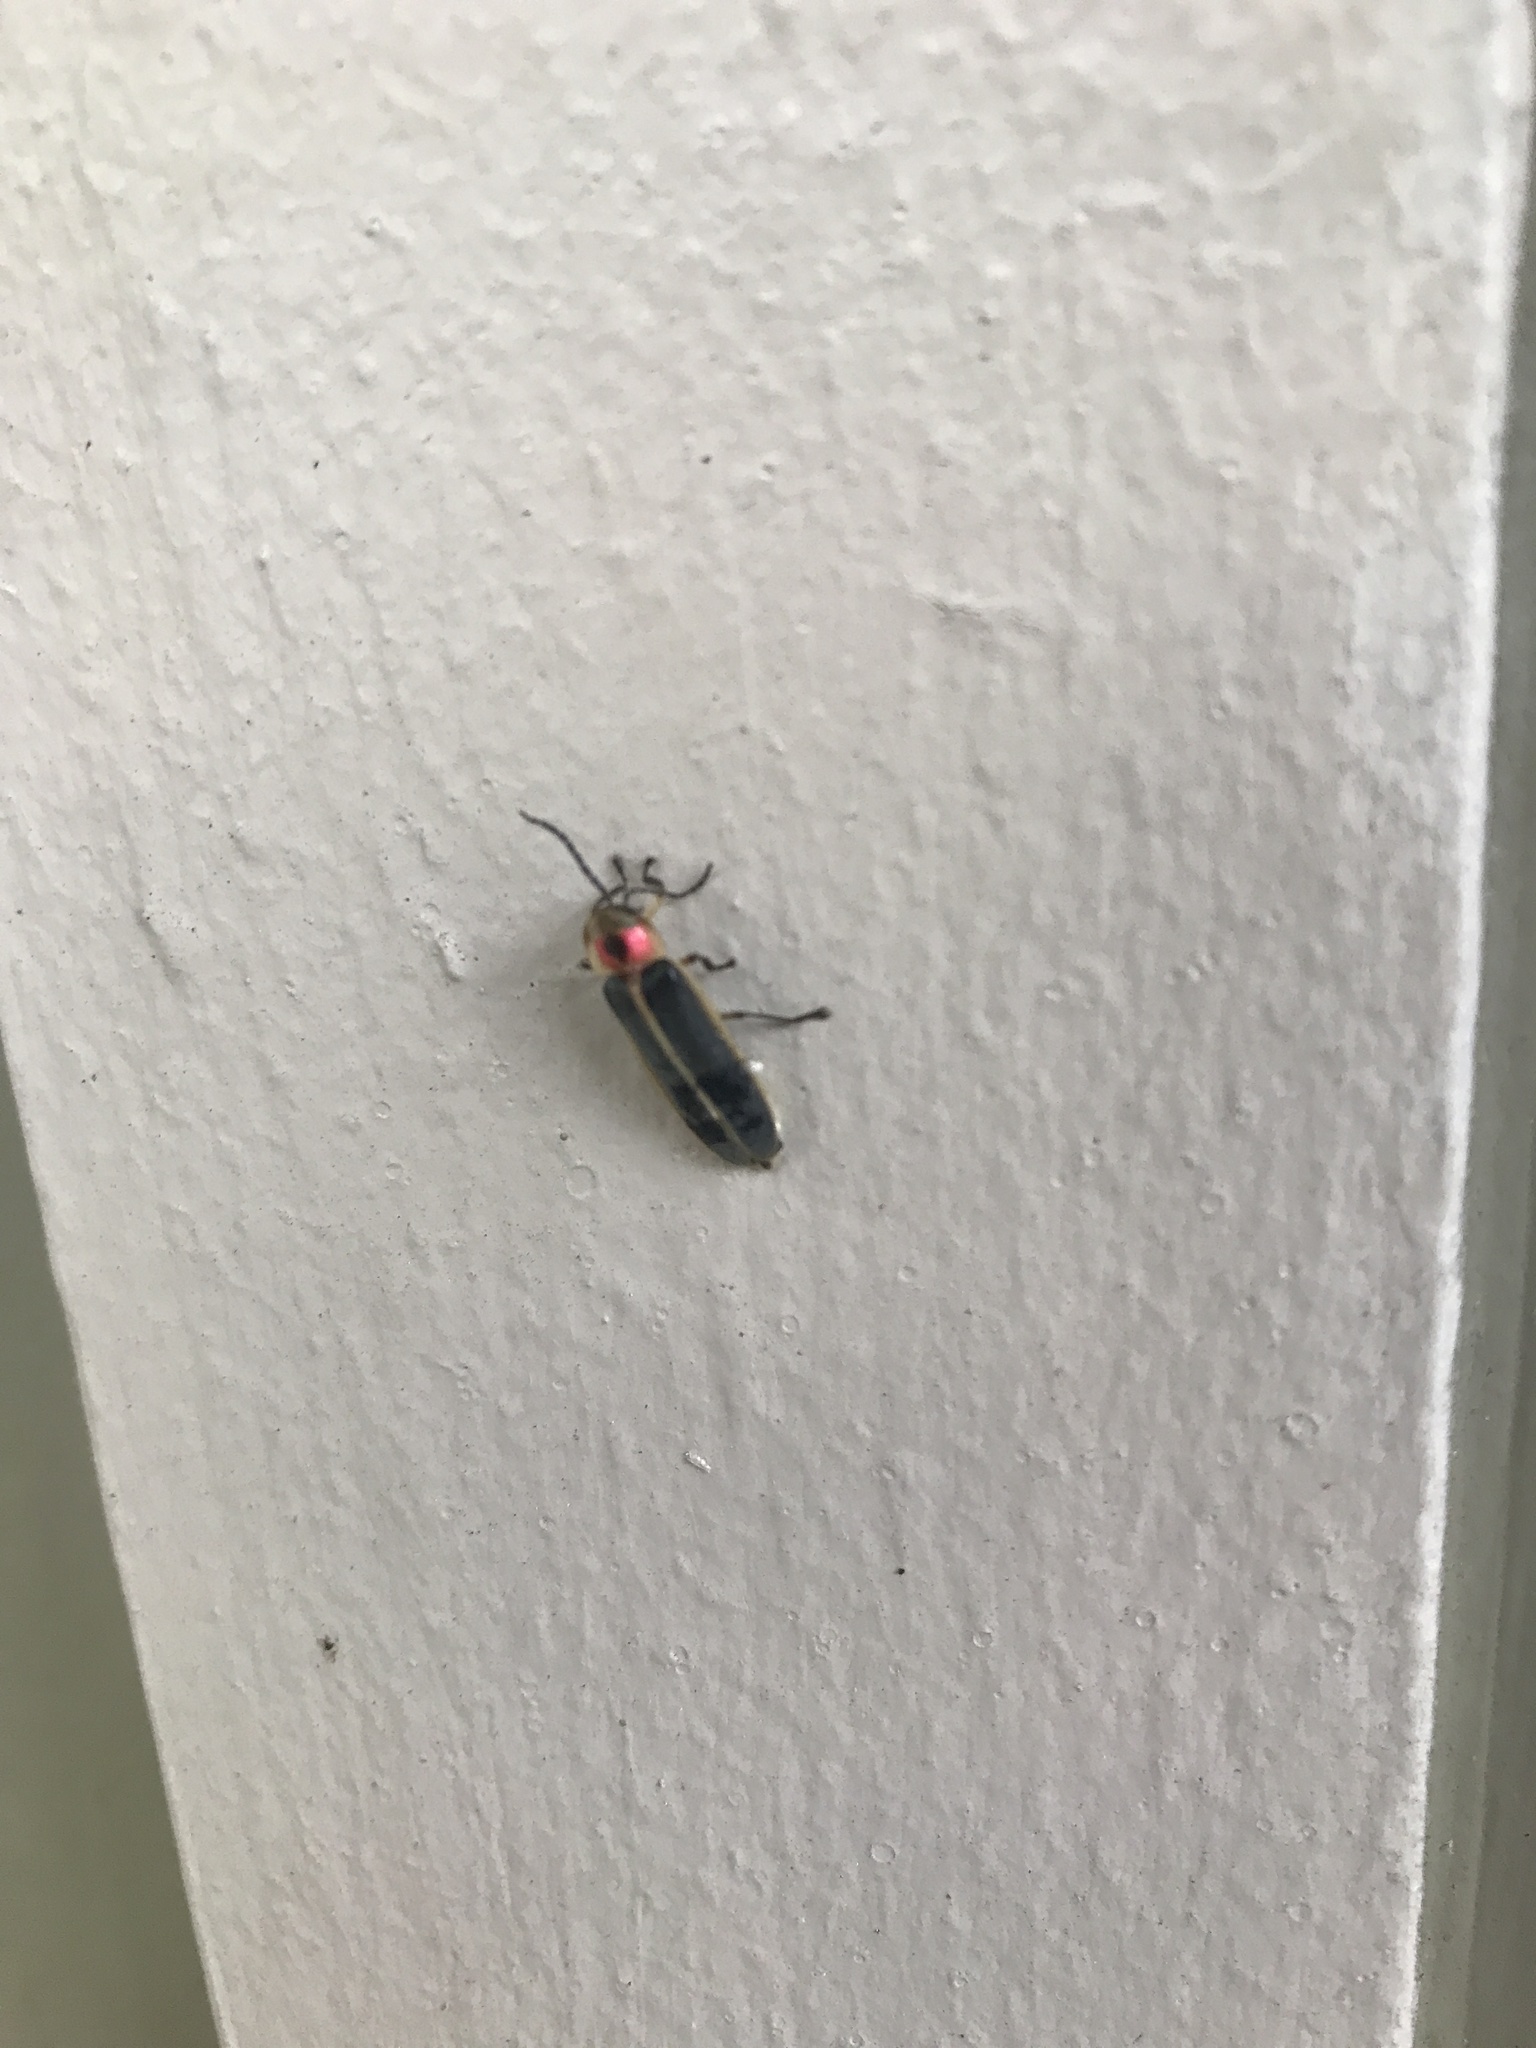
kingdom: Animalia
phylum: Arthropoda
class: Insecta
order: Coleoptera
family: Lampyridae
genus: Photinus
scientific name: Photinus pyralis
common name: Big dipper firefly
